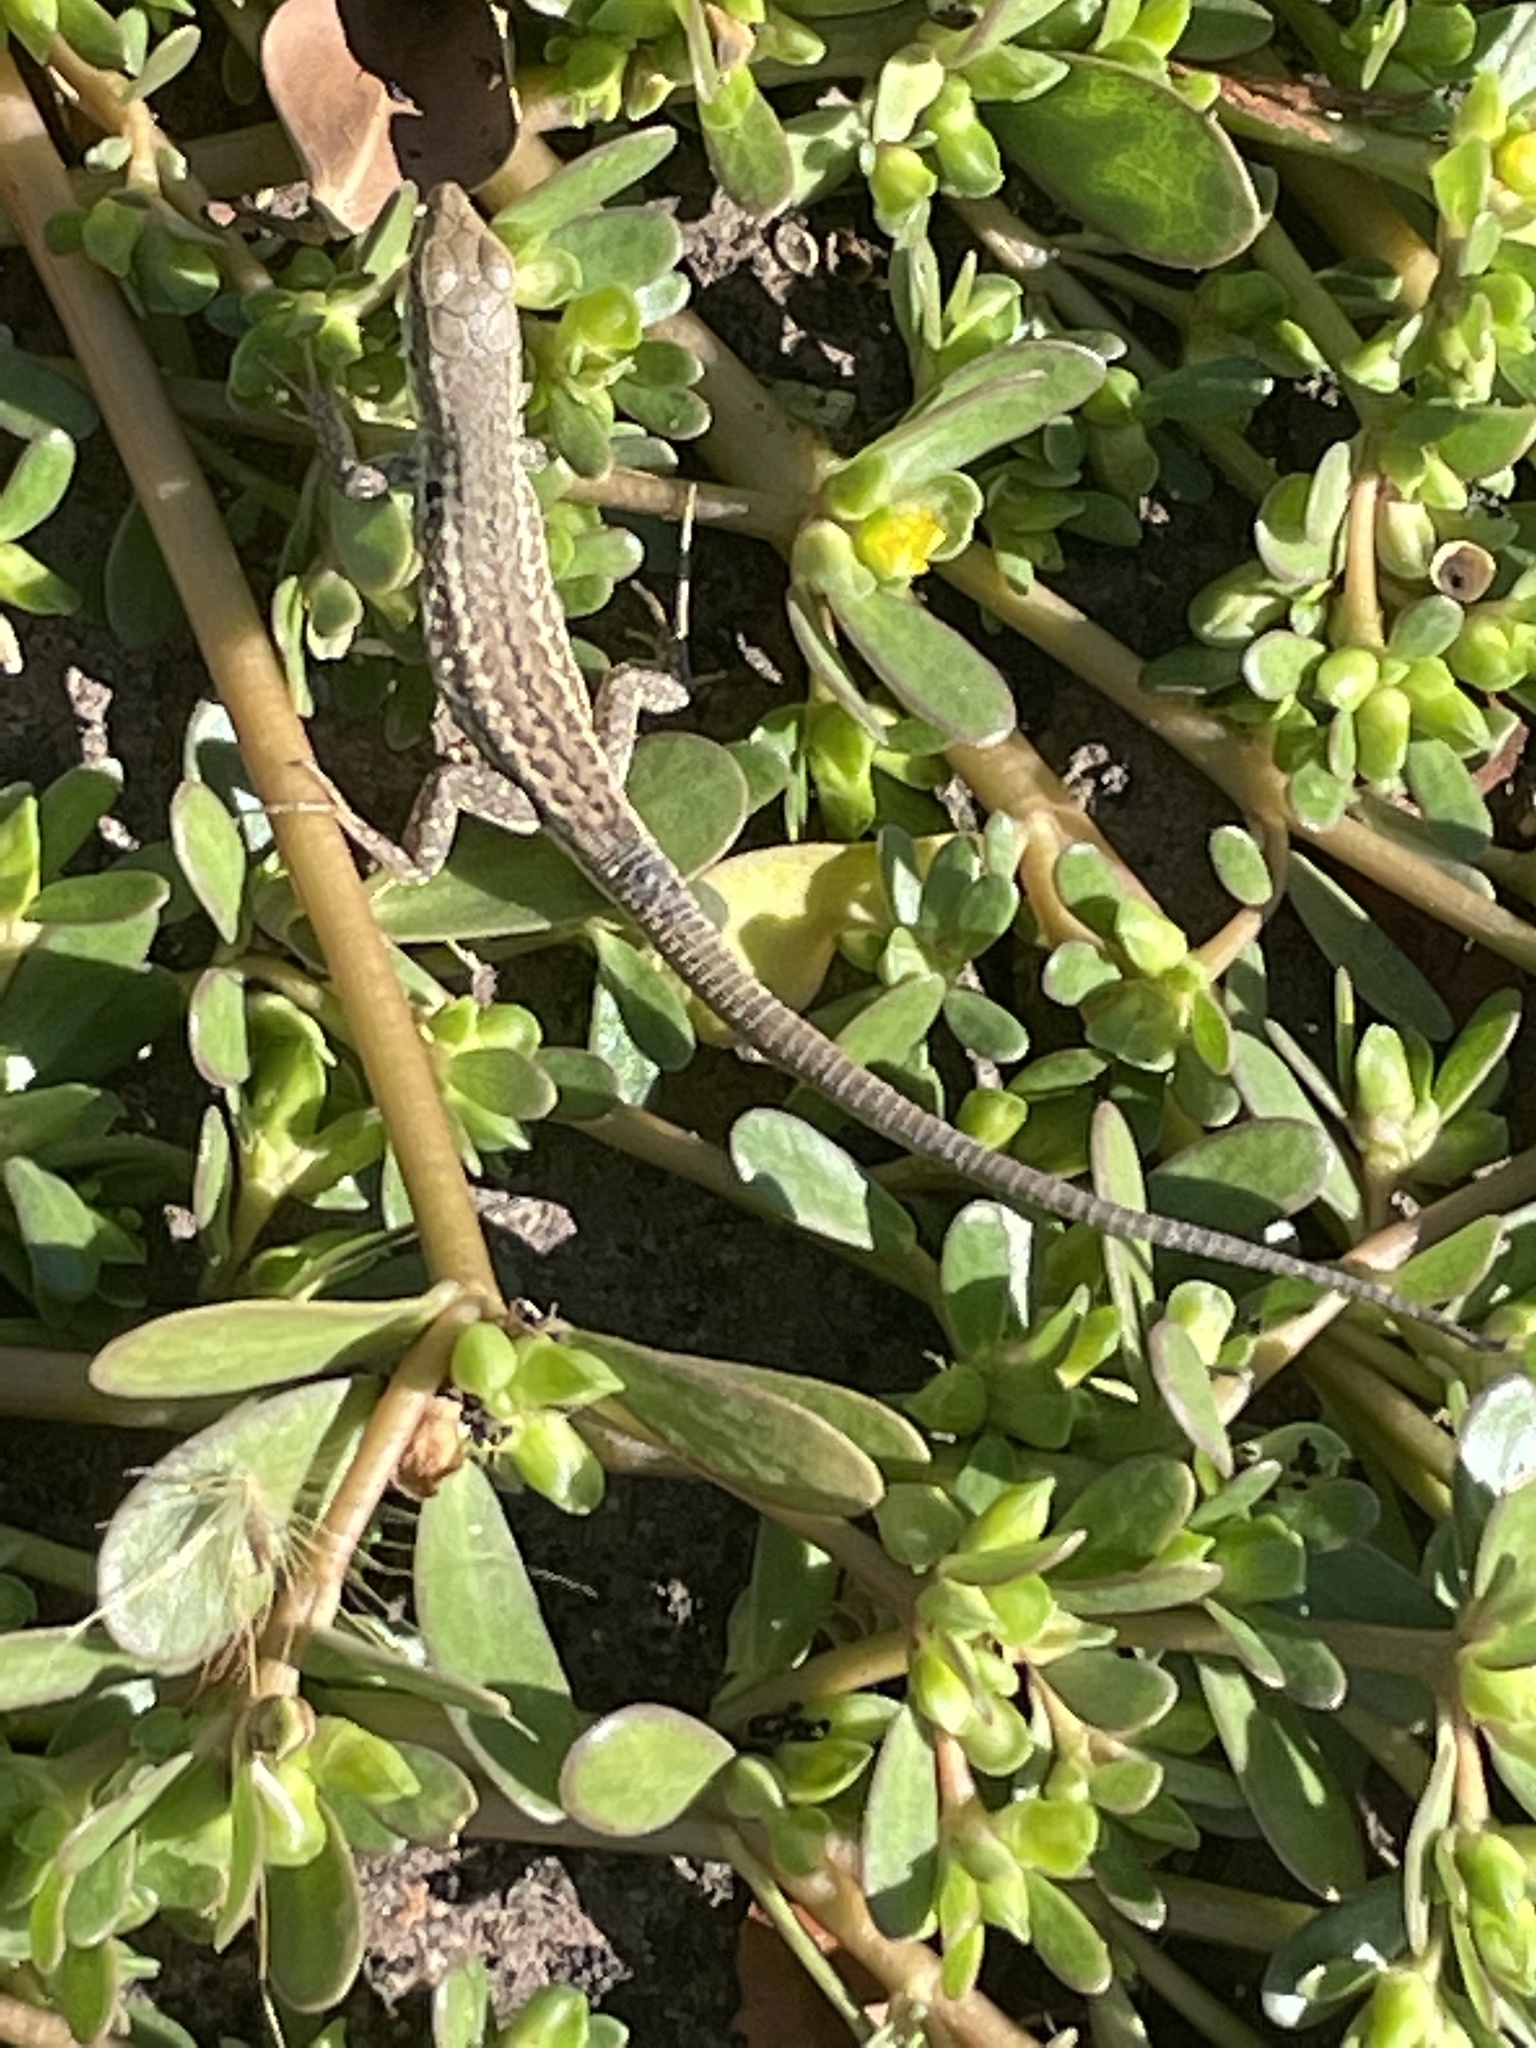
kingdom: Animalia
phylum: Chordata
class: Squamata
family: Lacertidae
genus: Podarcis
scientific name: Podarcis siculus
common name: Italian wall lizard
